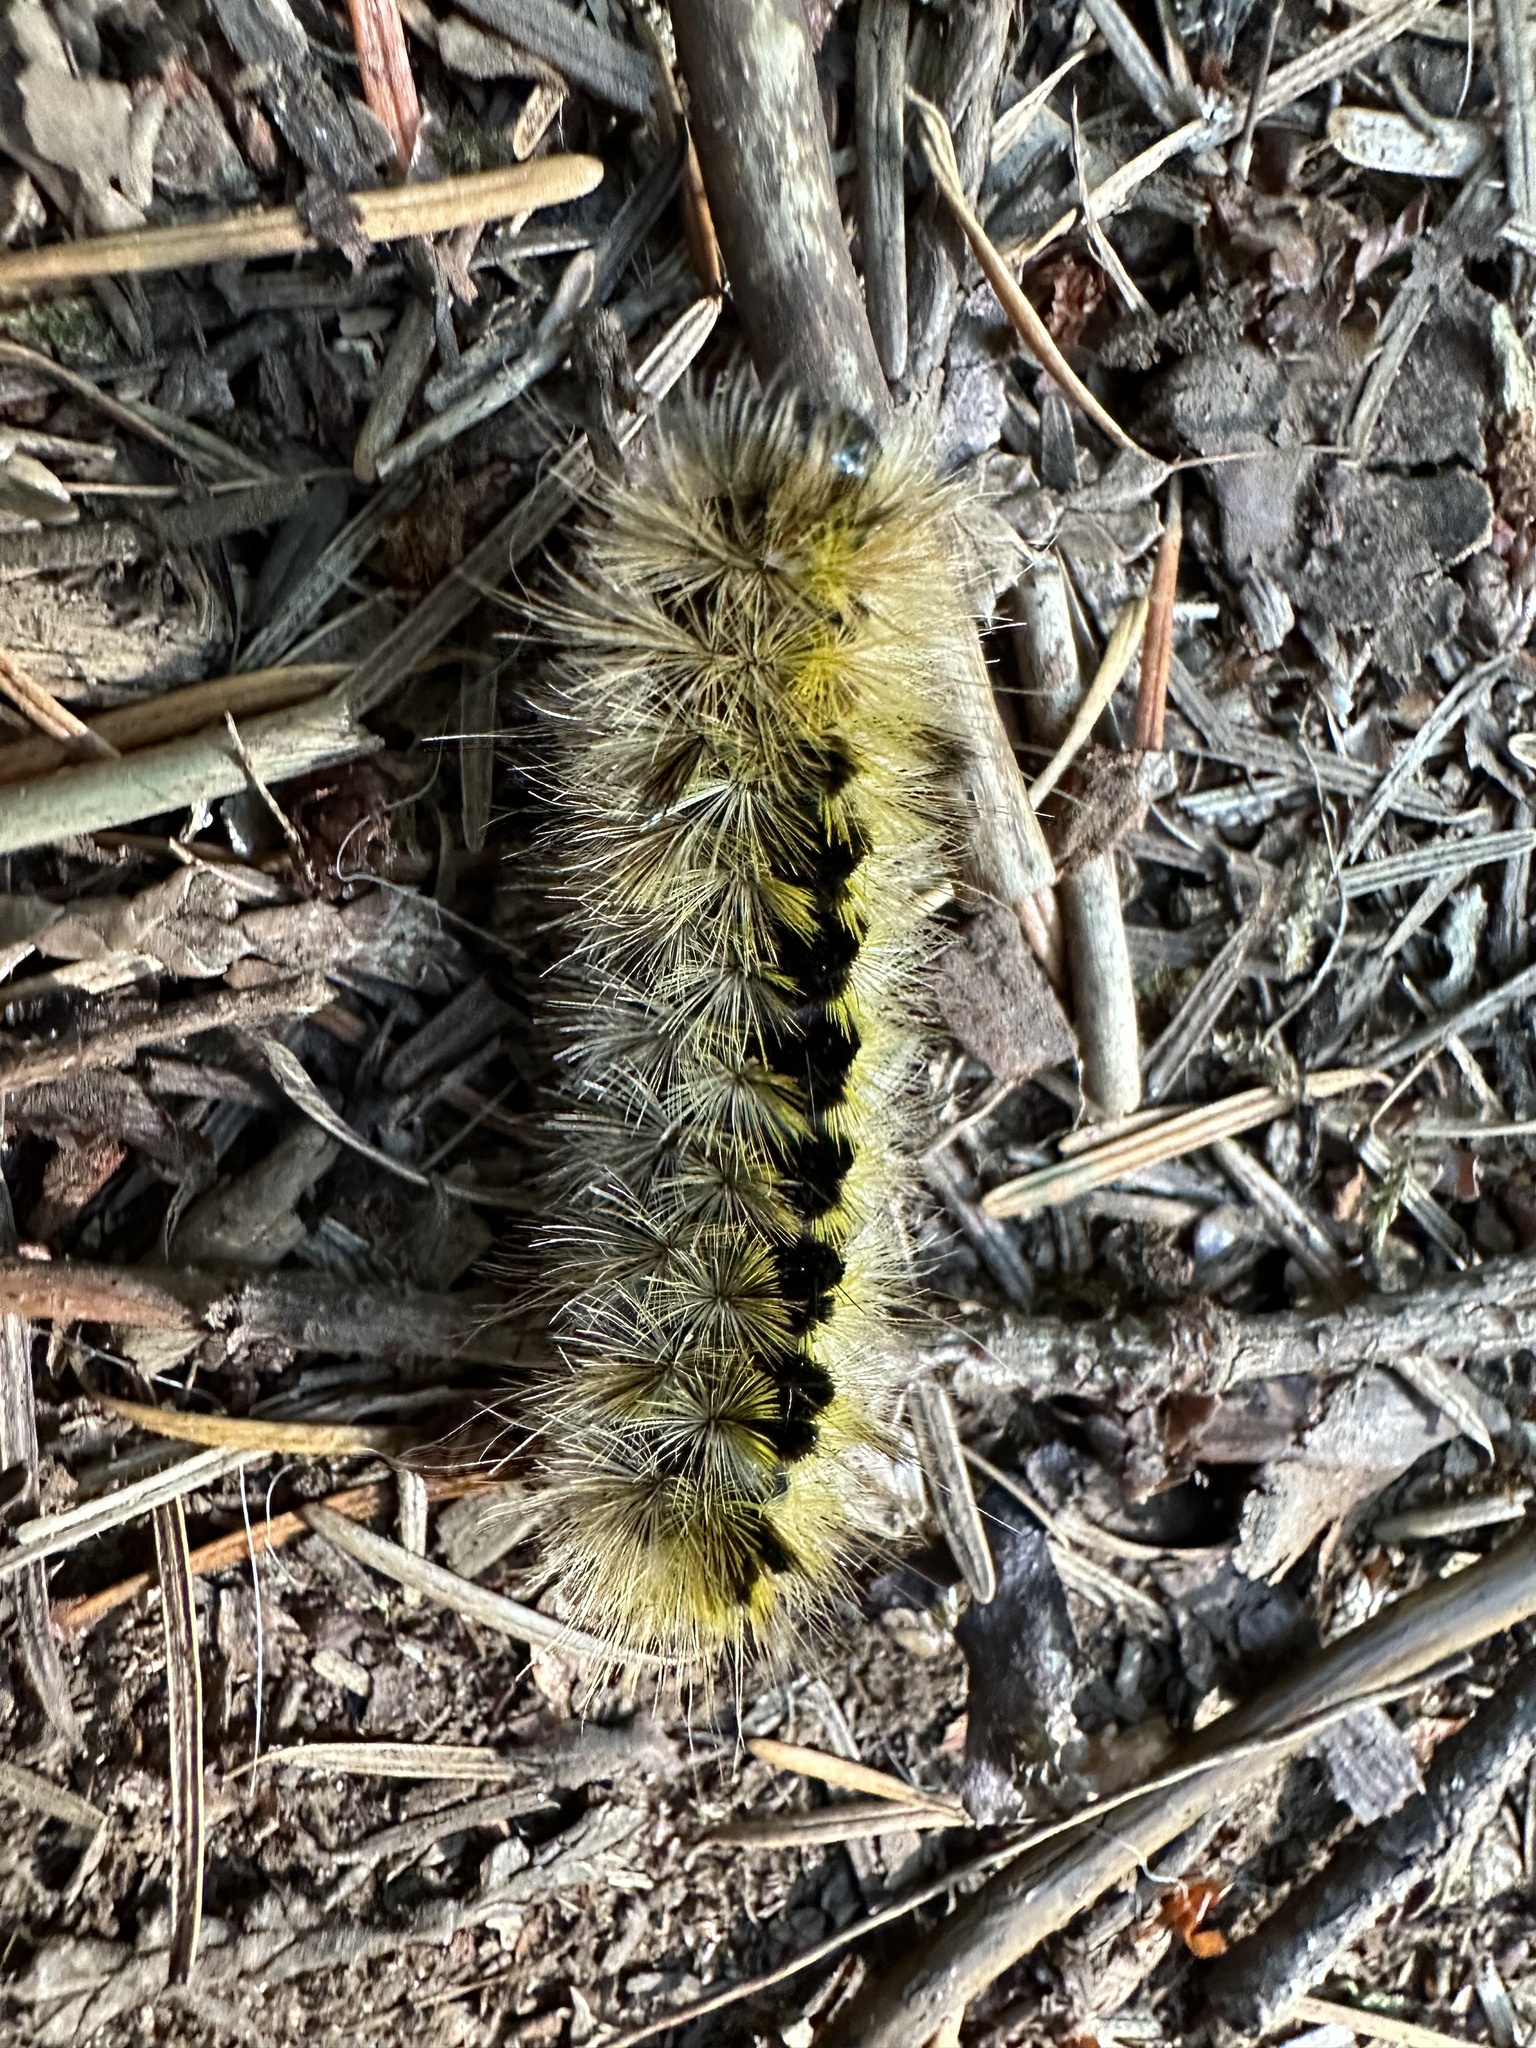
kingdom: Animalia
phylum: Arthropoda
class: Insecta
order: Lepidoptera
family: Erebidae
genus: Lophocampa
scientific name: Lophocampa argentata
